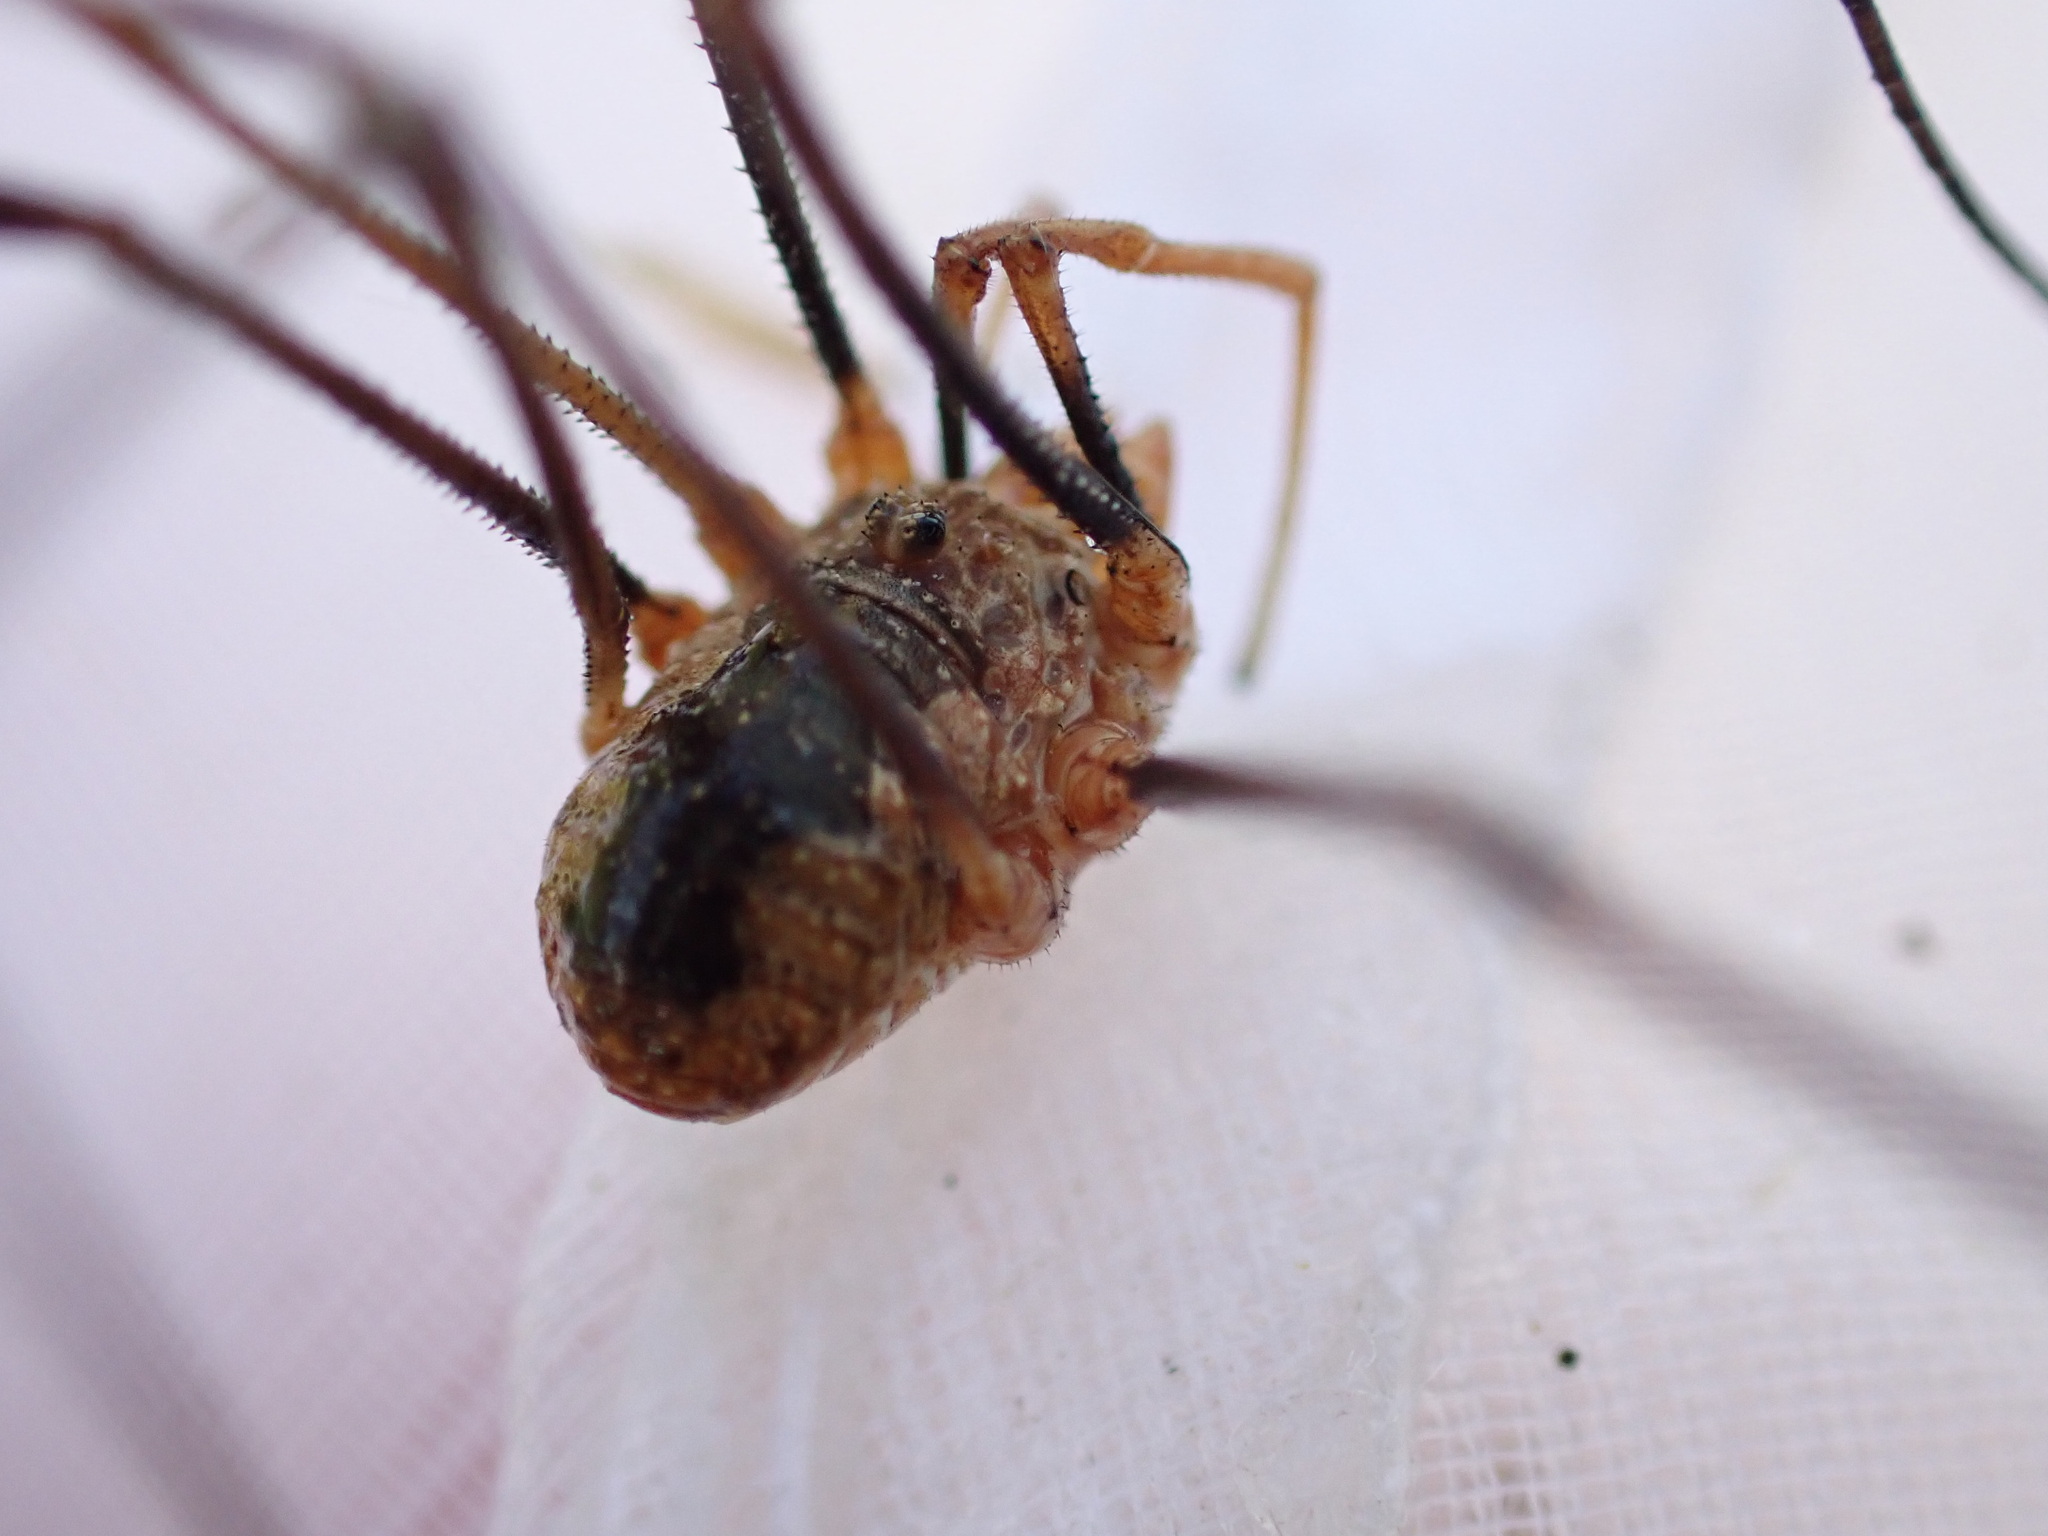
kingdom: Animalia
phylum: Arthropoda
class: Arachnida
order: Opiliones
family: Phalangiidae
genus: Phalangium
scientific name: Phalangium opilio
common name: Daddy longleg
